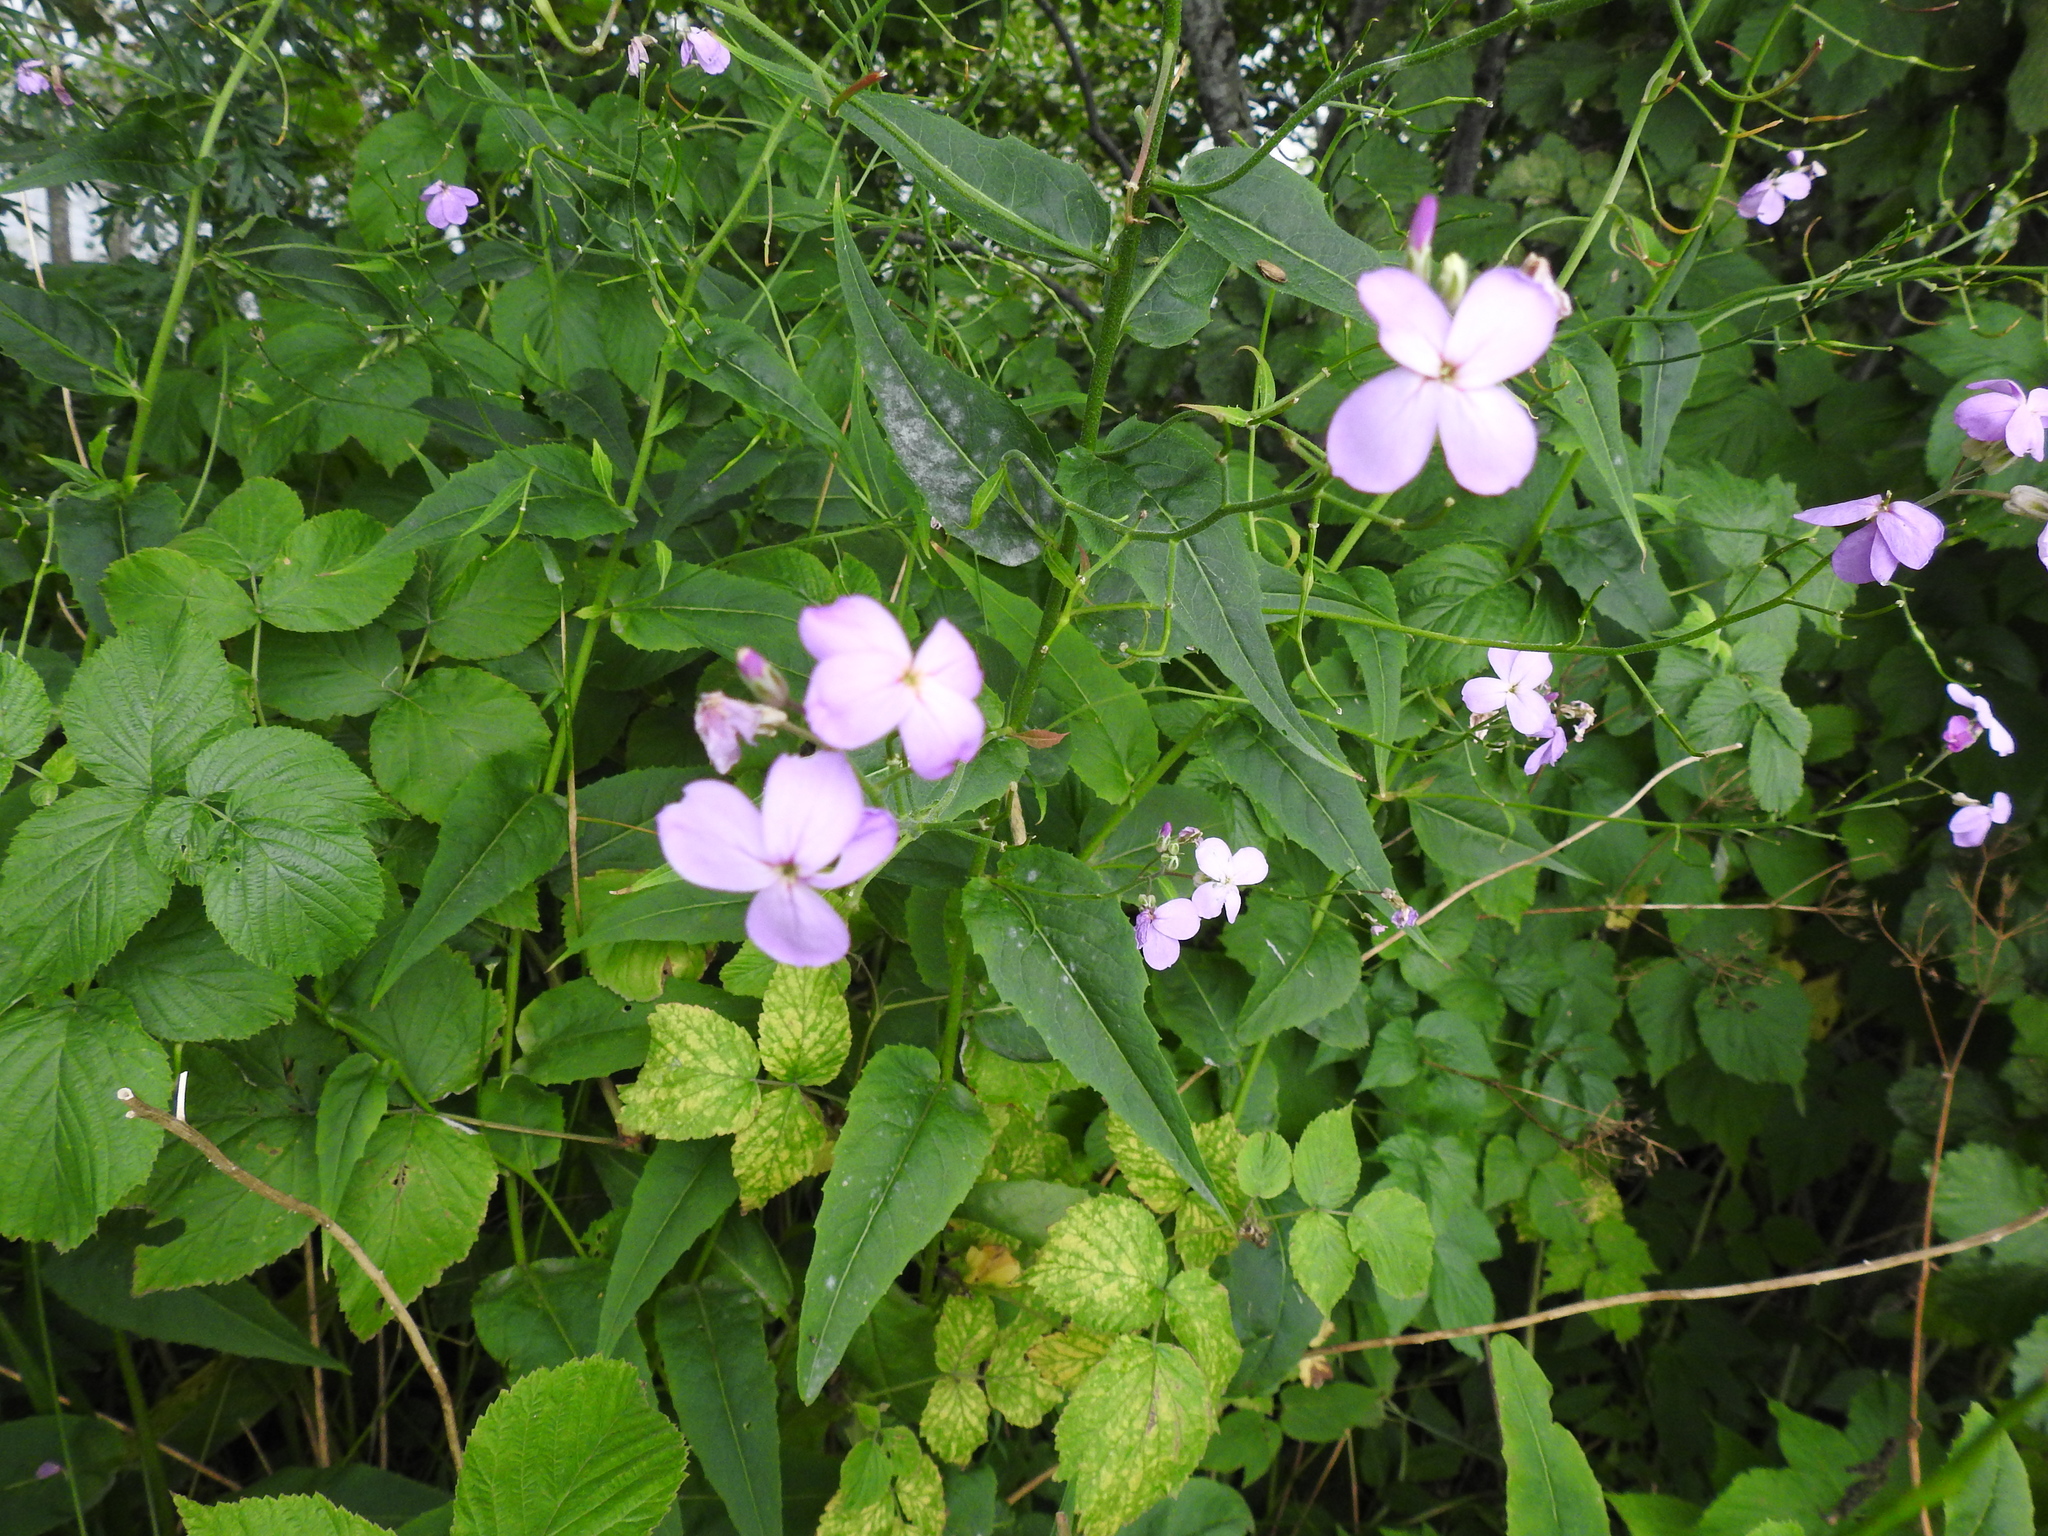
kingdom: Plantae
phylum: Tracheophyta
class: Magnoliopsida
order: Brassicales
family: Brassicaceae
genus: Hesperis
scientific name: Hesperis matronalis
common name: Dame's-violet
